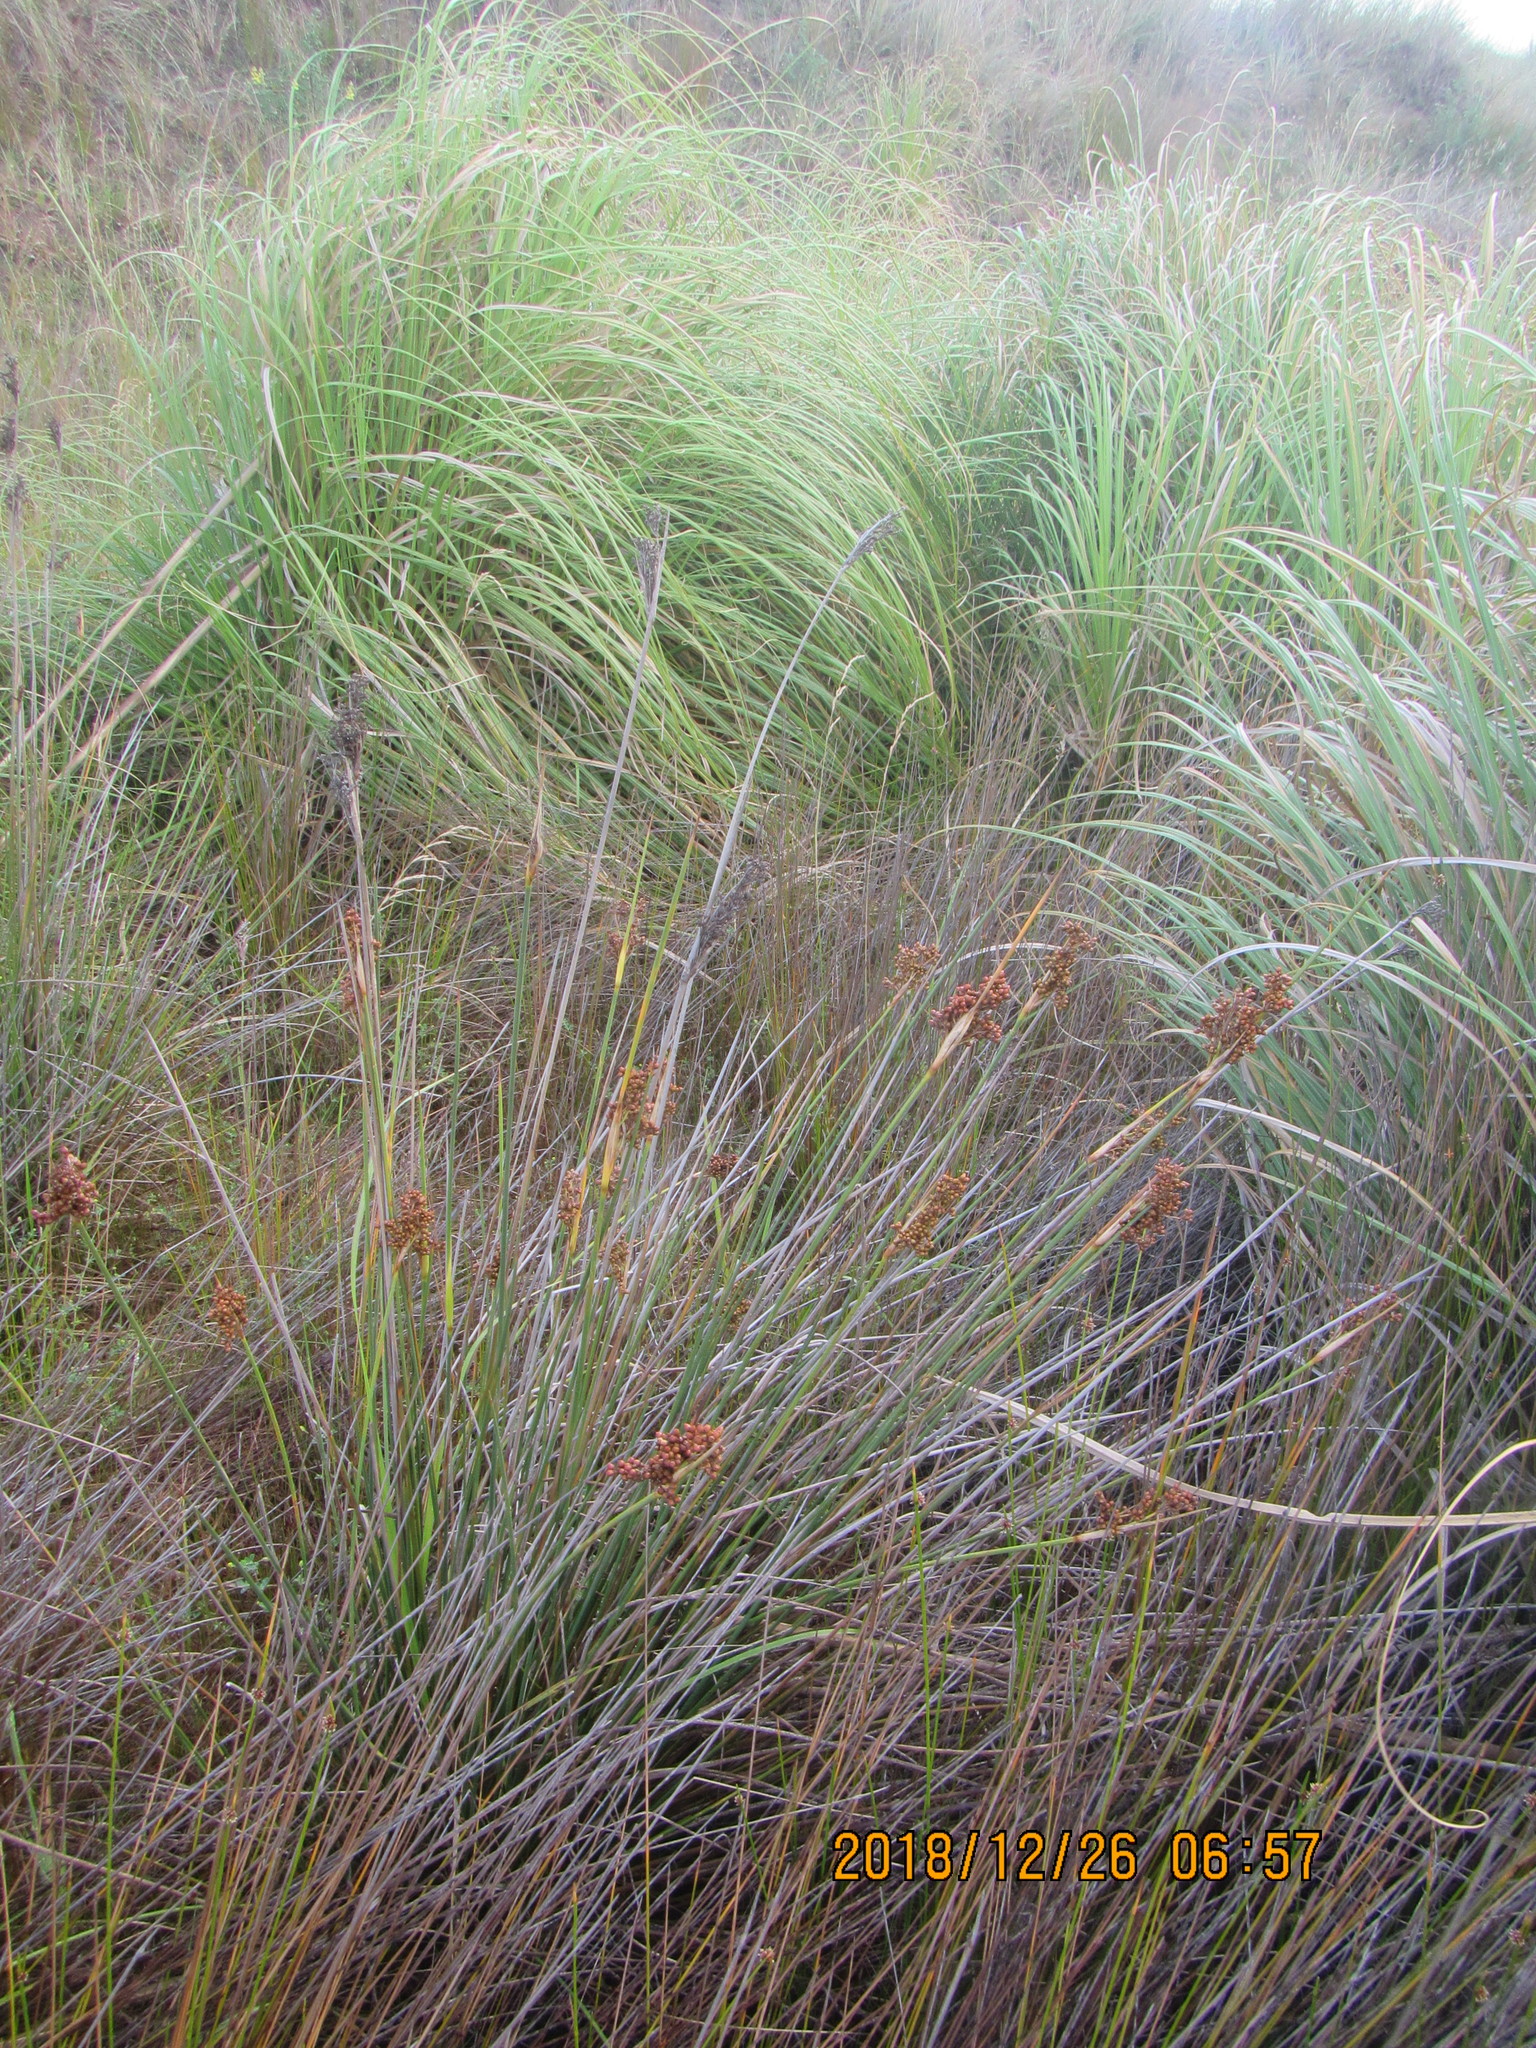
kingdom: Plantae
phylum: Tracheophyta
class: Liliopsida
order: Poales
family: Juncaceae
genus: Juncus
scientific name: Juncus acutus
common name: Sharp rush
